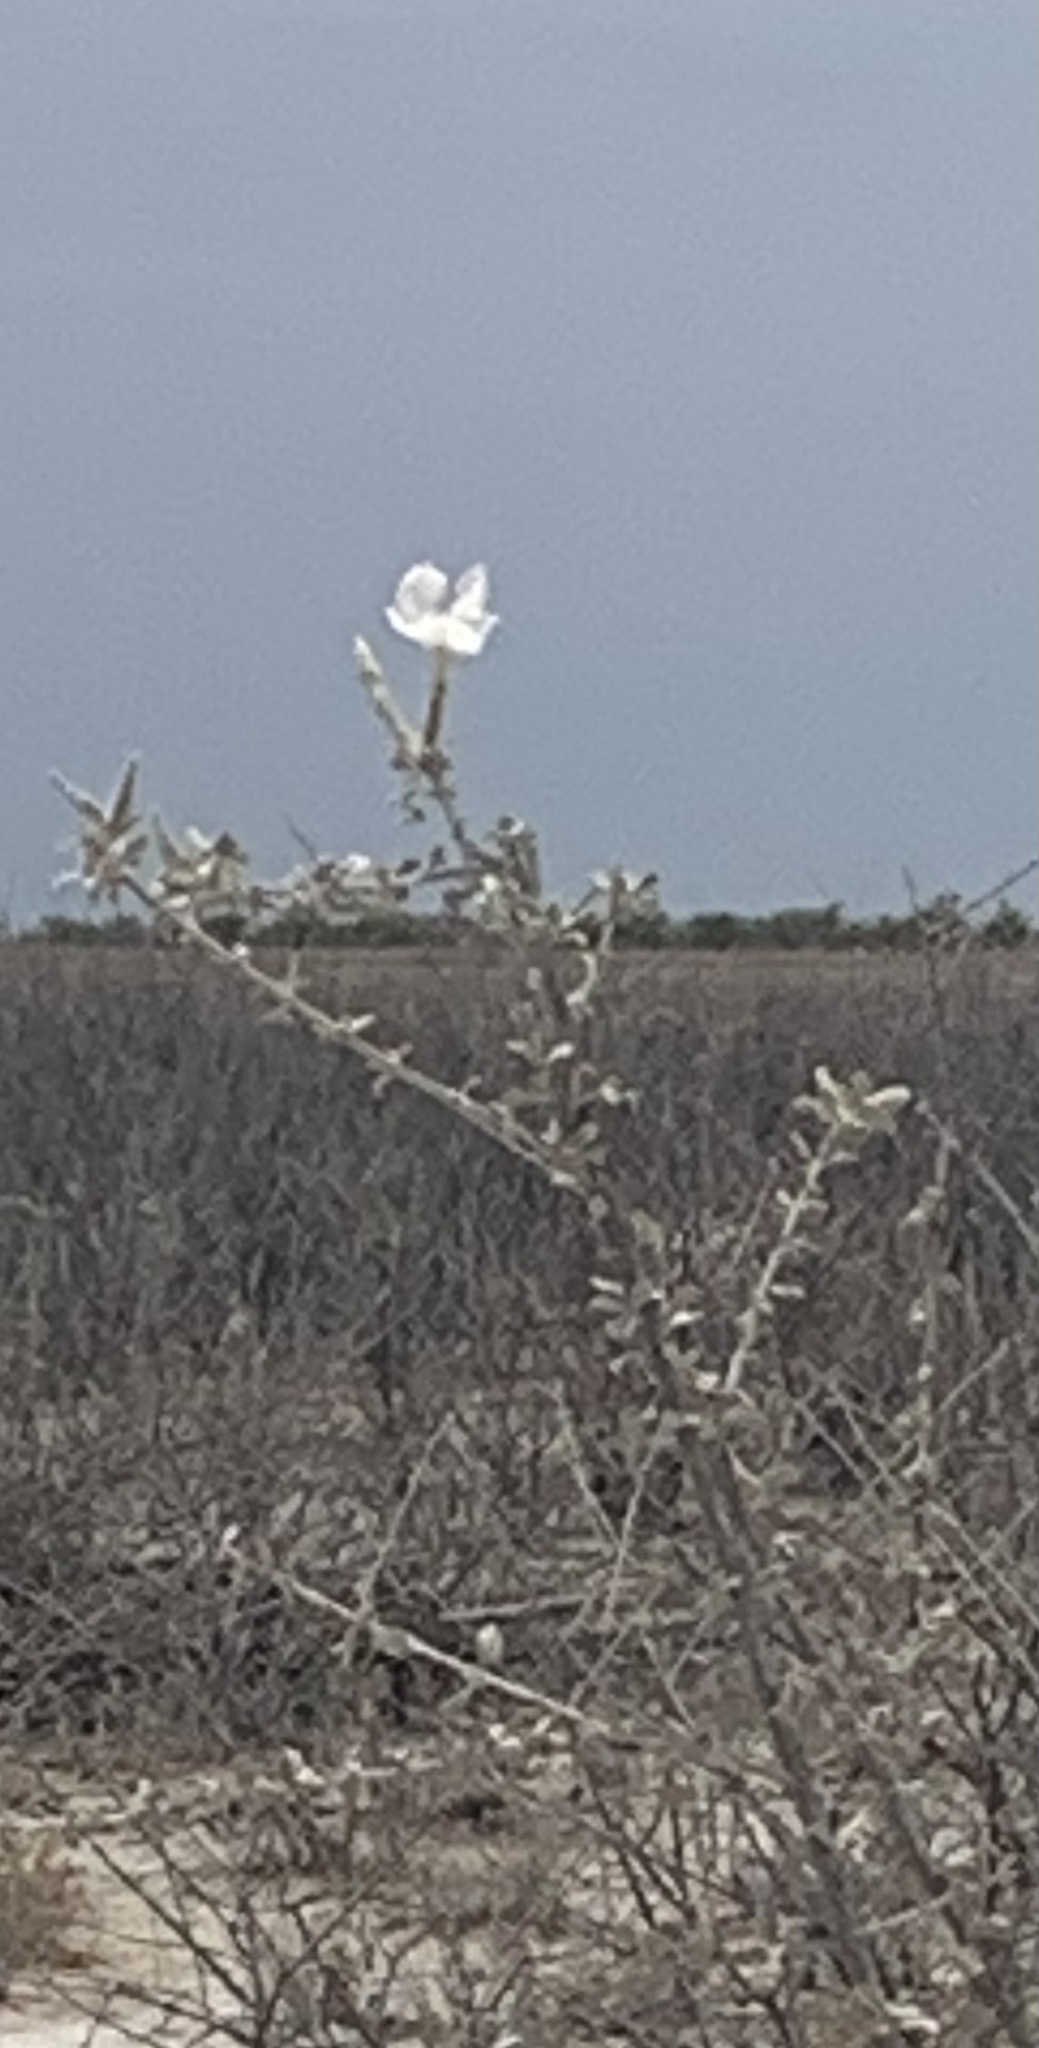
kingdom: Plantae
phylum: Tracheophyta
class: Magnoliopsida
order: Lamiales
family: Bignoniaceae
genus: Catophractes
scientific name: Catophractes alexandri
